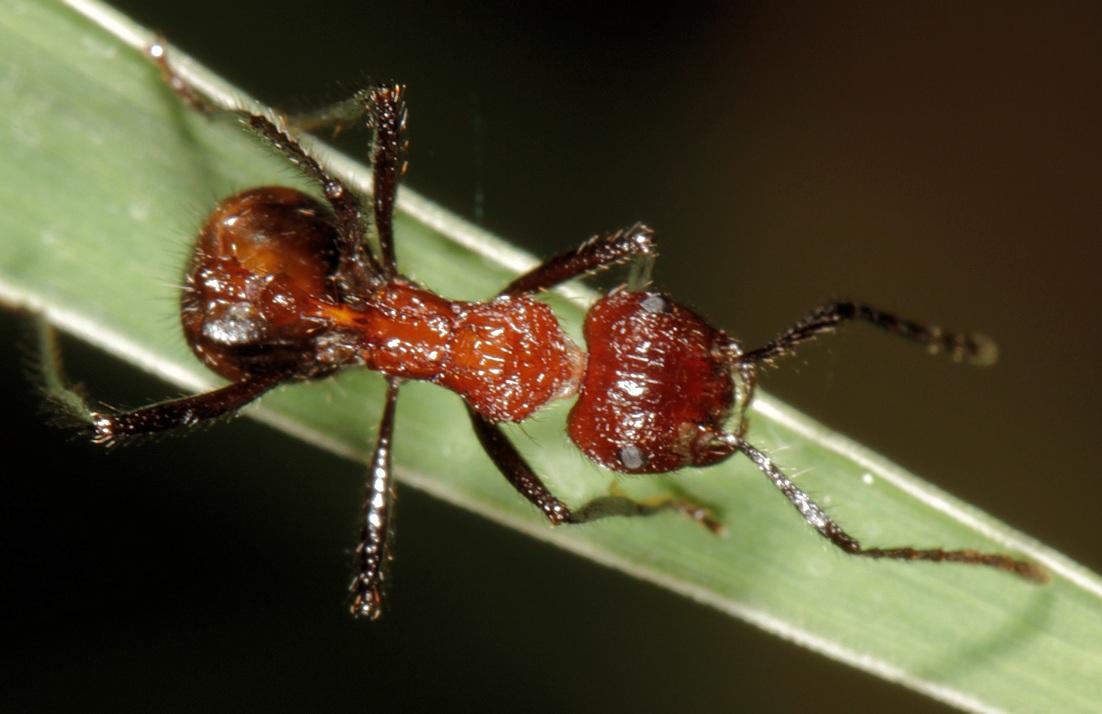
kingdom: Animalia
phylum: Arthropoda
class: Insecta
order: Hymenoptera
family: Formicidae
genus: Myrmicaria
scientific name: Myrmicaria natalensis
